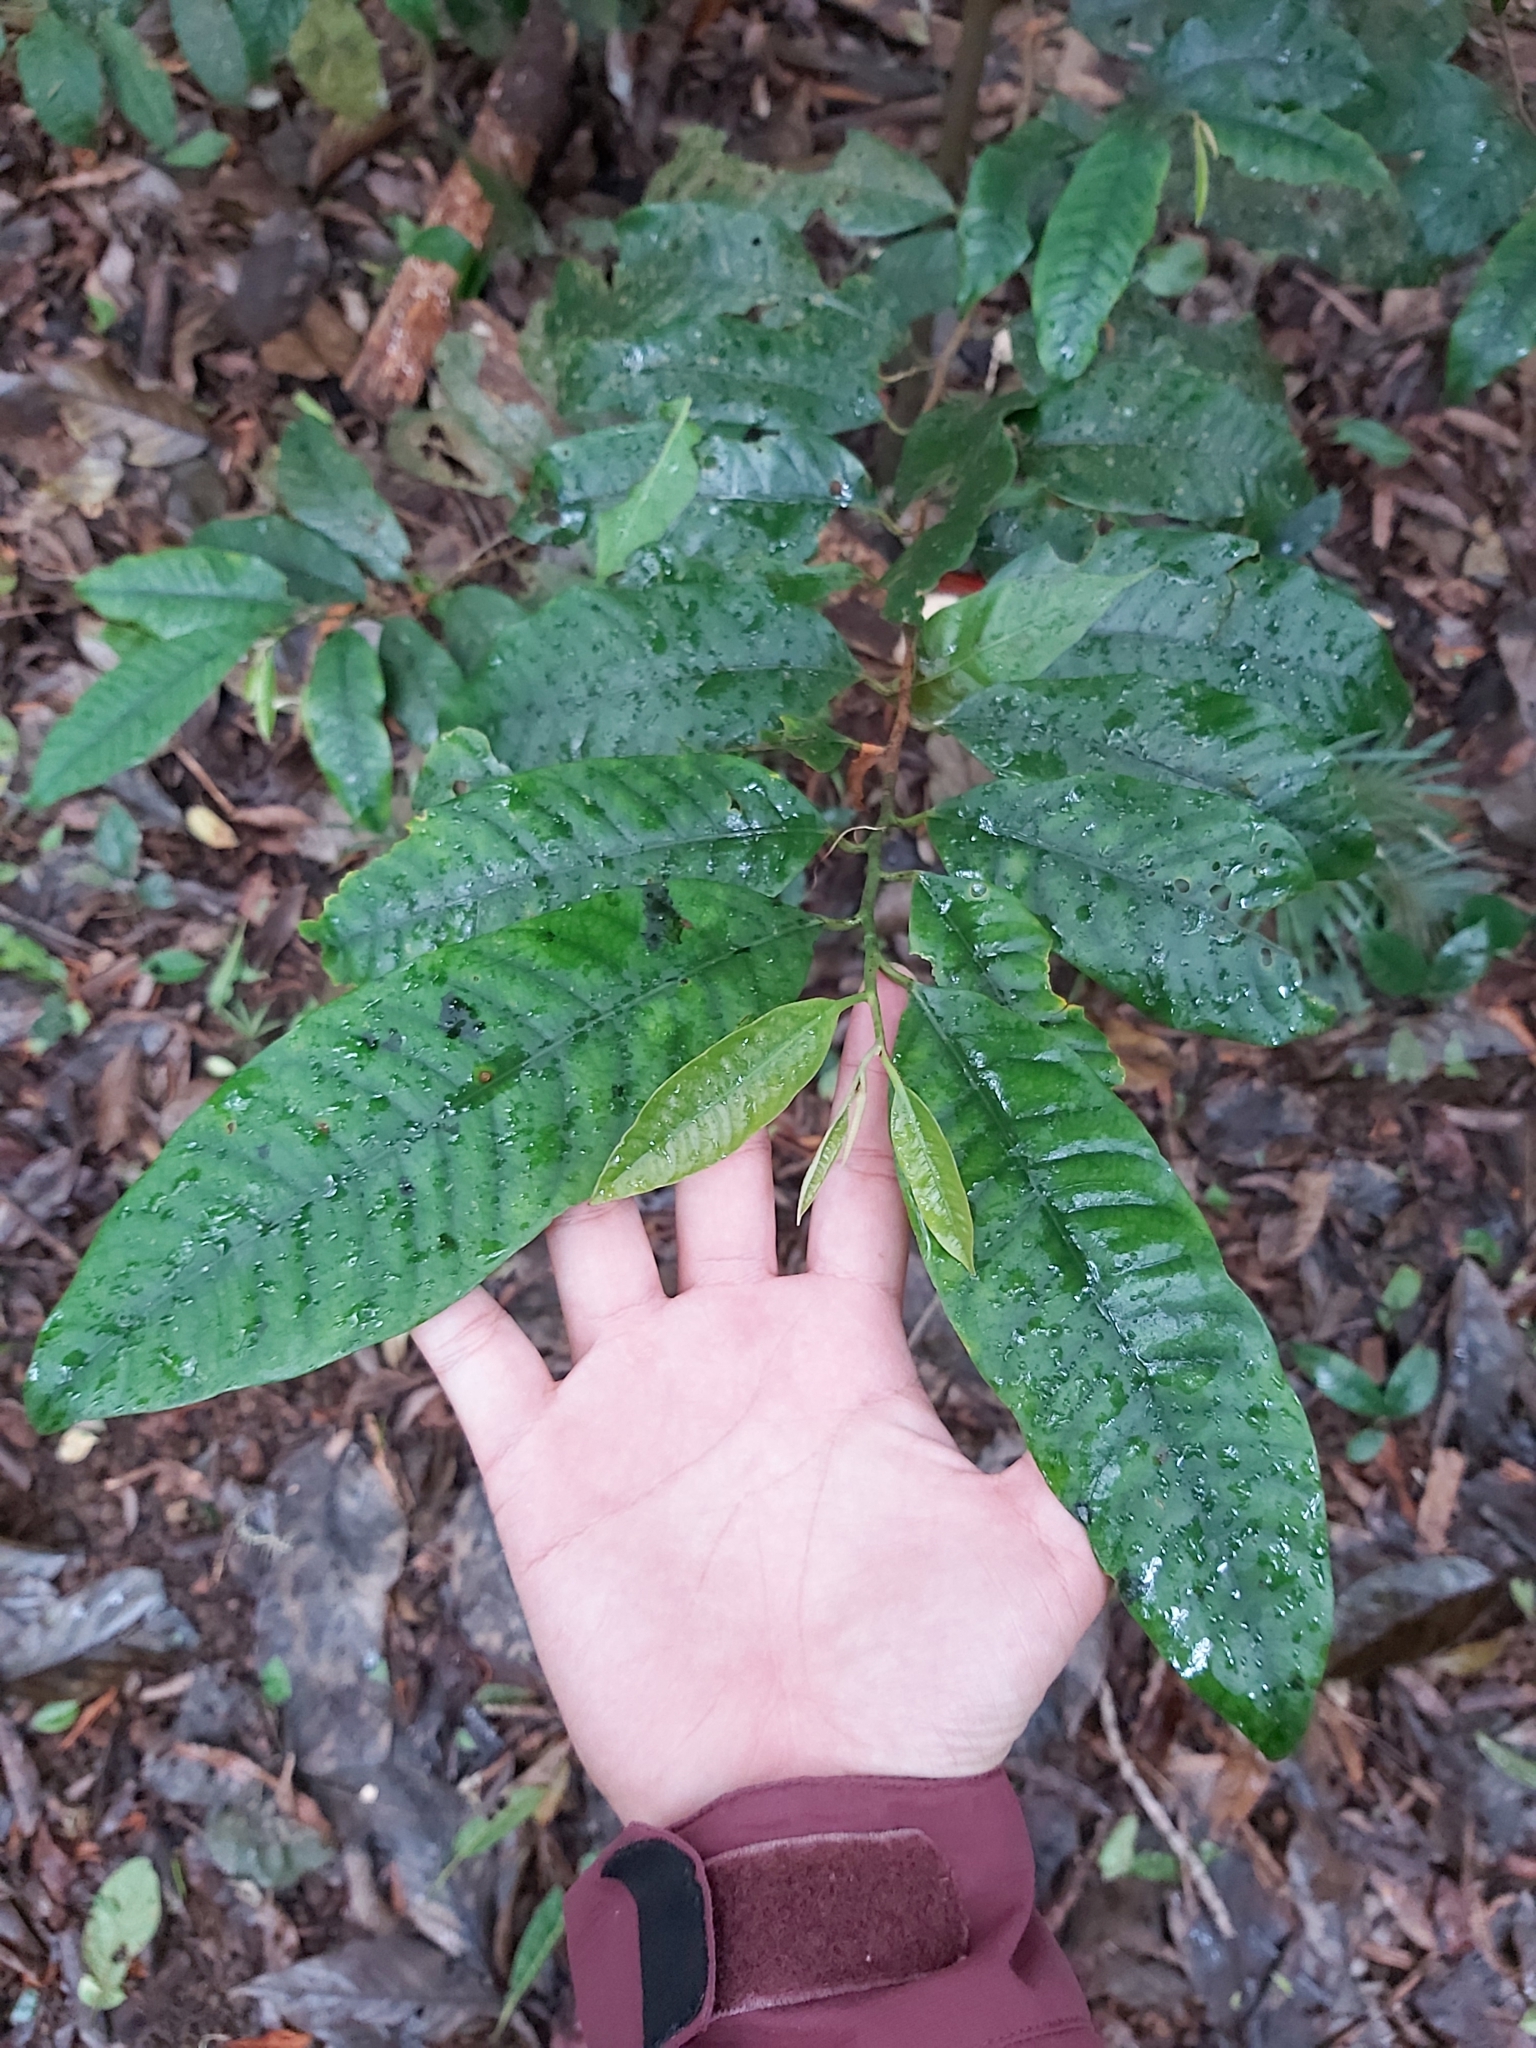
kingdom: Plantae
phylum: Tracheophyta
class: Magnoliopsida
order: Magnoliales
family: Myristicaceae
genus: Myristica
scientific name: Myristica insipida
